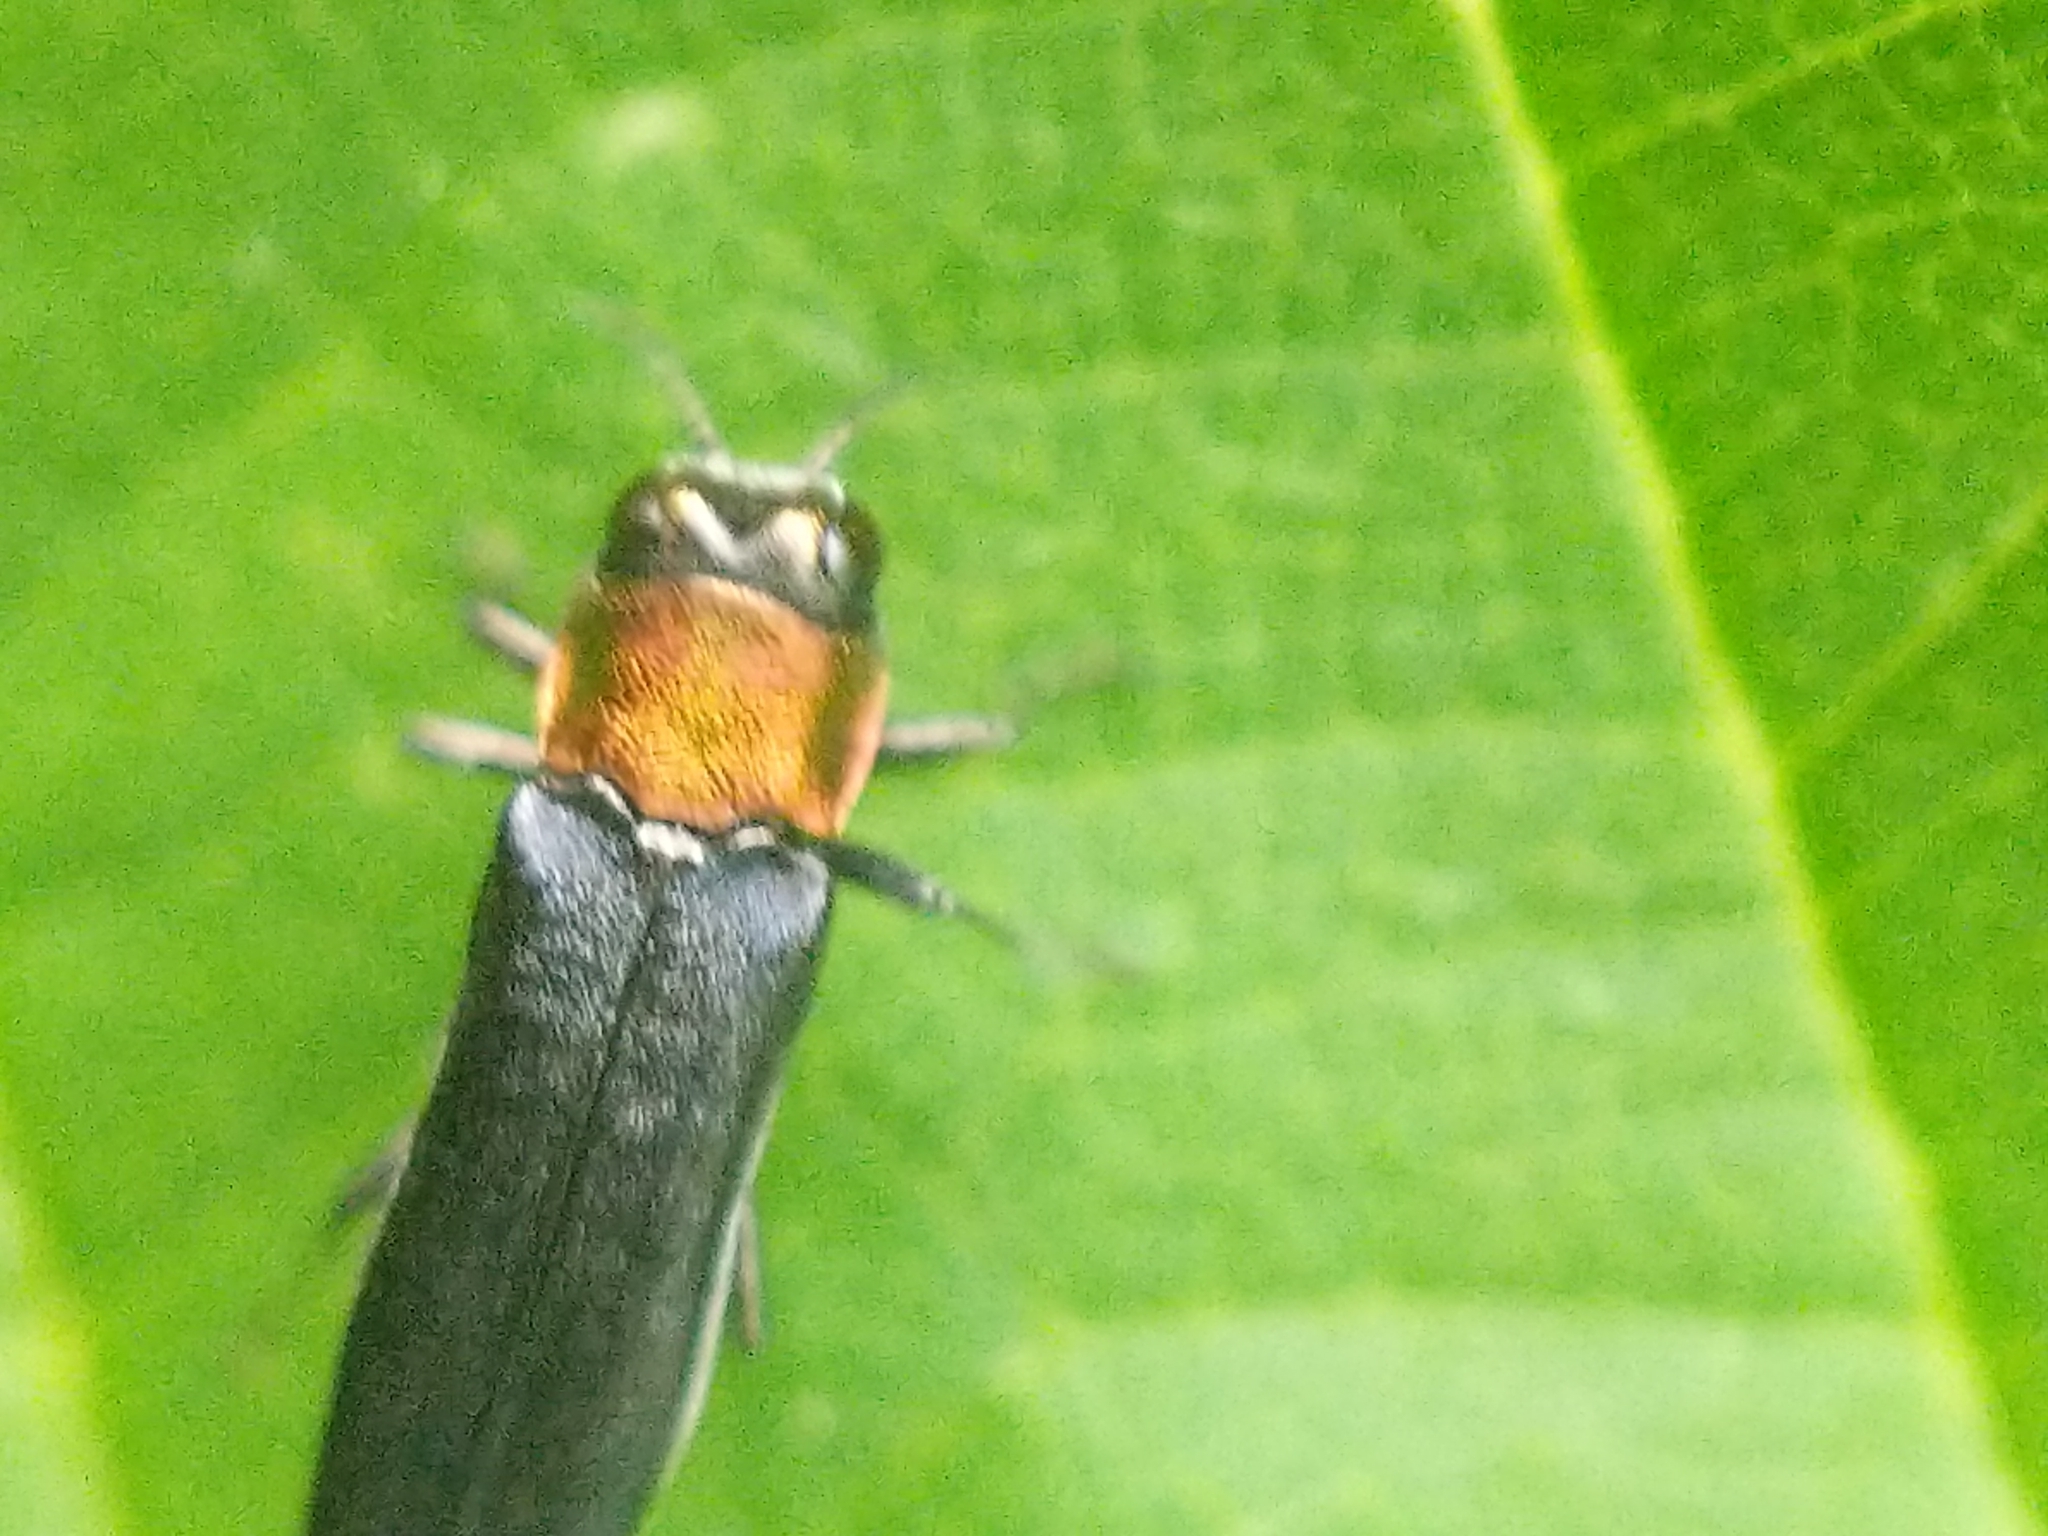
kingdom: Animalia
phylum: Arthropoda
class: Insecta
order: Coleoptera
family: Buprestidae
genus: Agrilus
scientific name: Agrilus ruficollis
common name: Red-necked cane borer beetle
